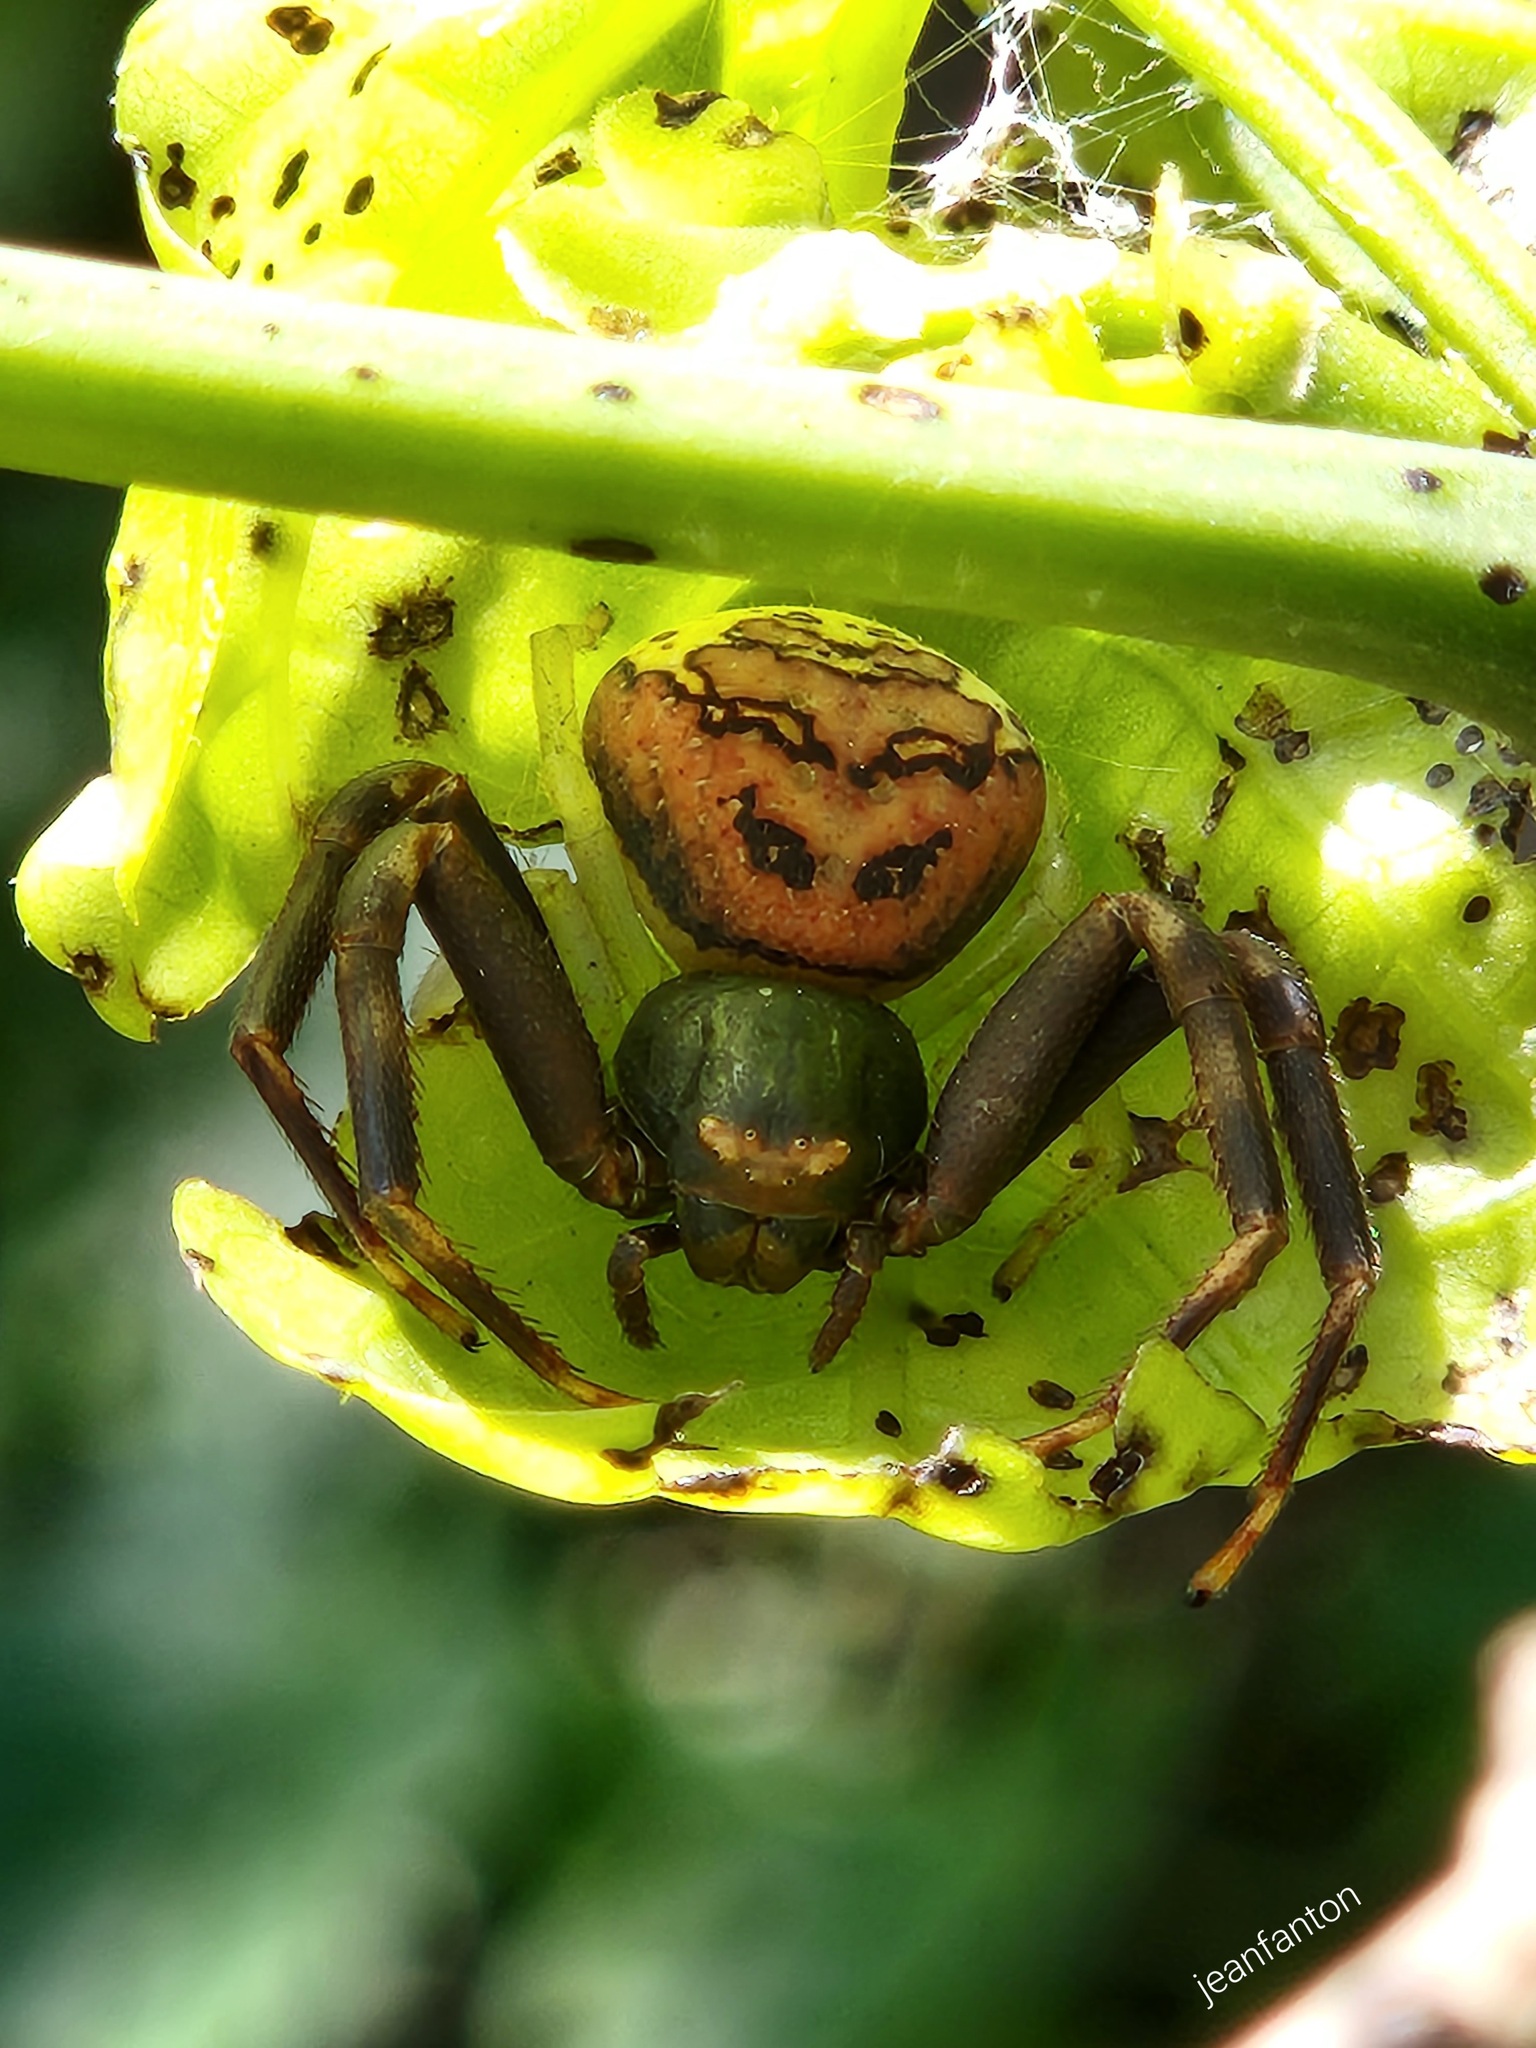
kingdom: Animalia
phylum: Arthropoda
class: Arachnida
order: Araneae
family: Thomisidae
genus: Runcinioides
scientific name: Runcinioides litteratus
